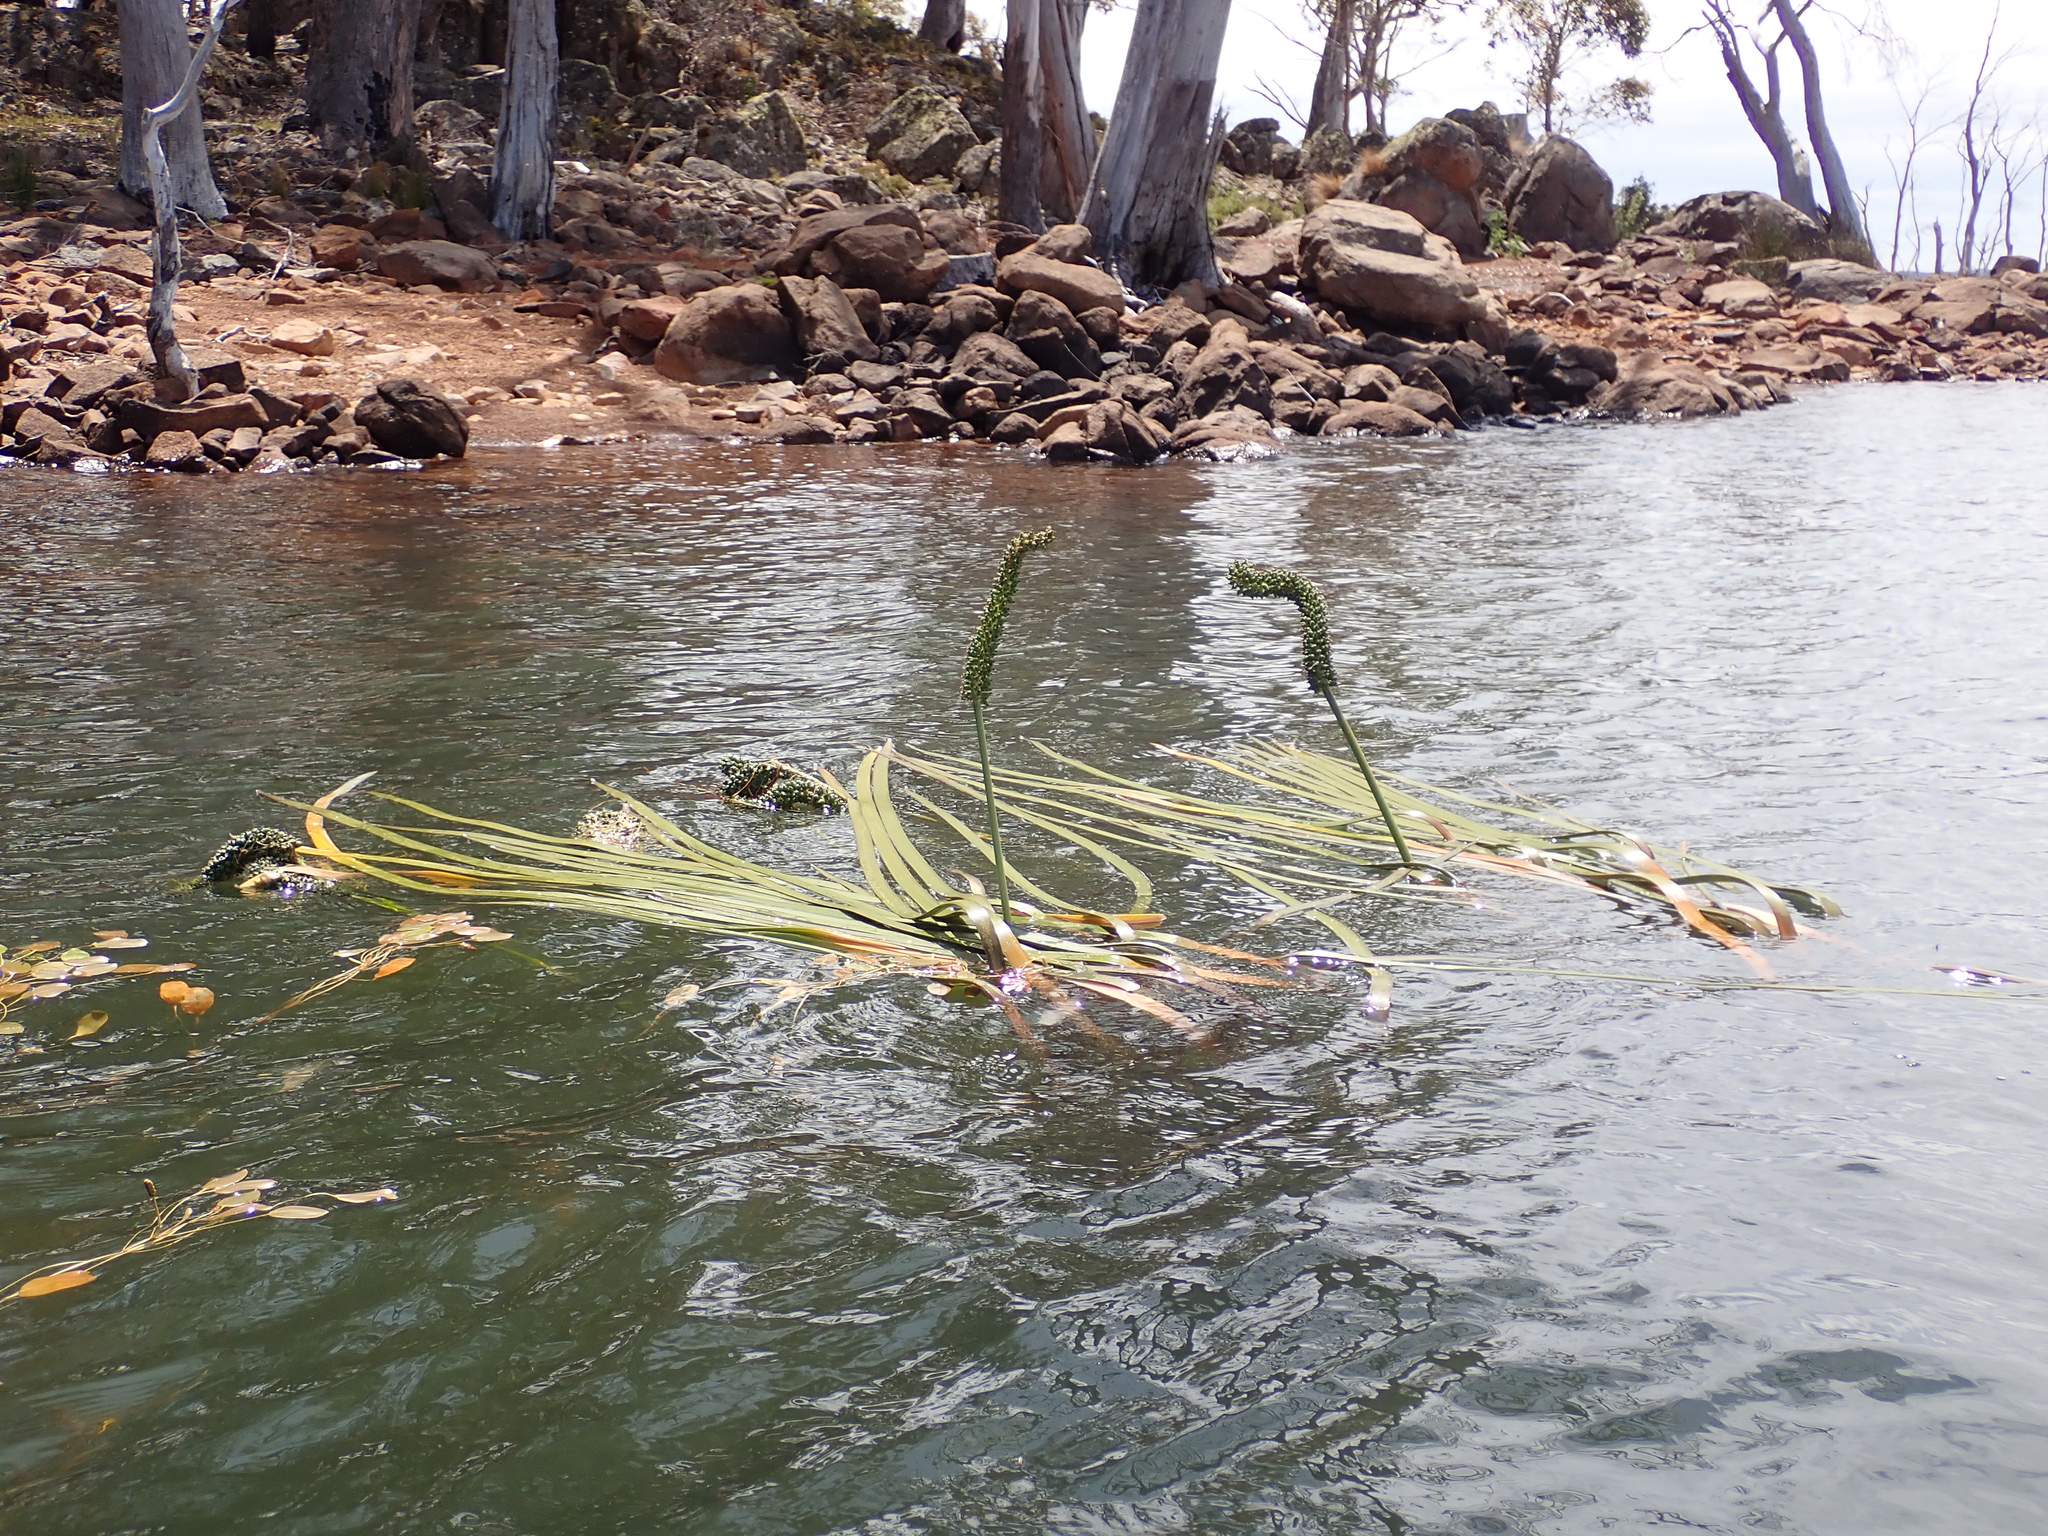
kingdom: Plantae
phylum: Tracheophyta
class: Liliopsida
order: Alismatales
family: Juncaginaceae
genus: Cycnogeton
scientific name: Cycnogeton procerum
